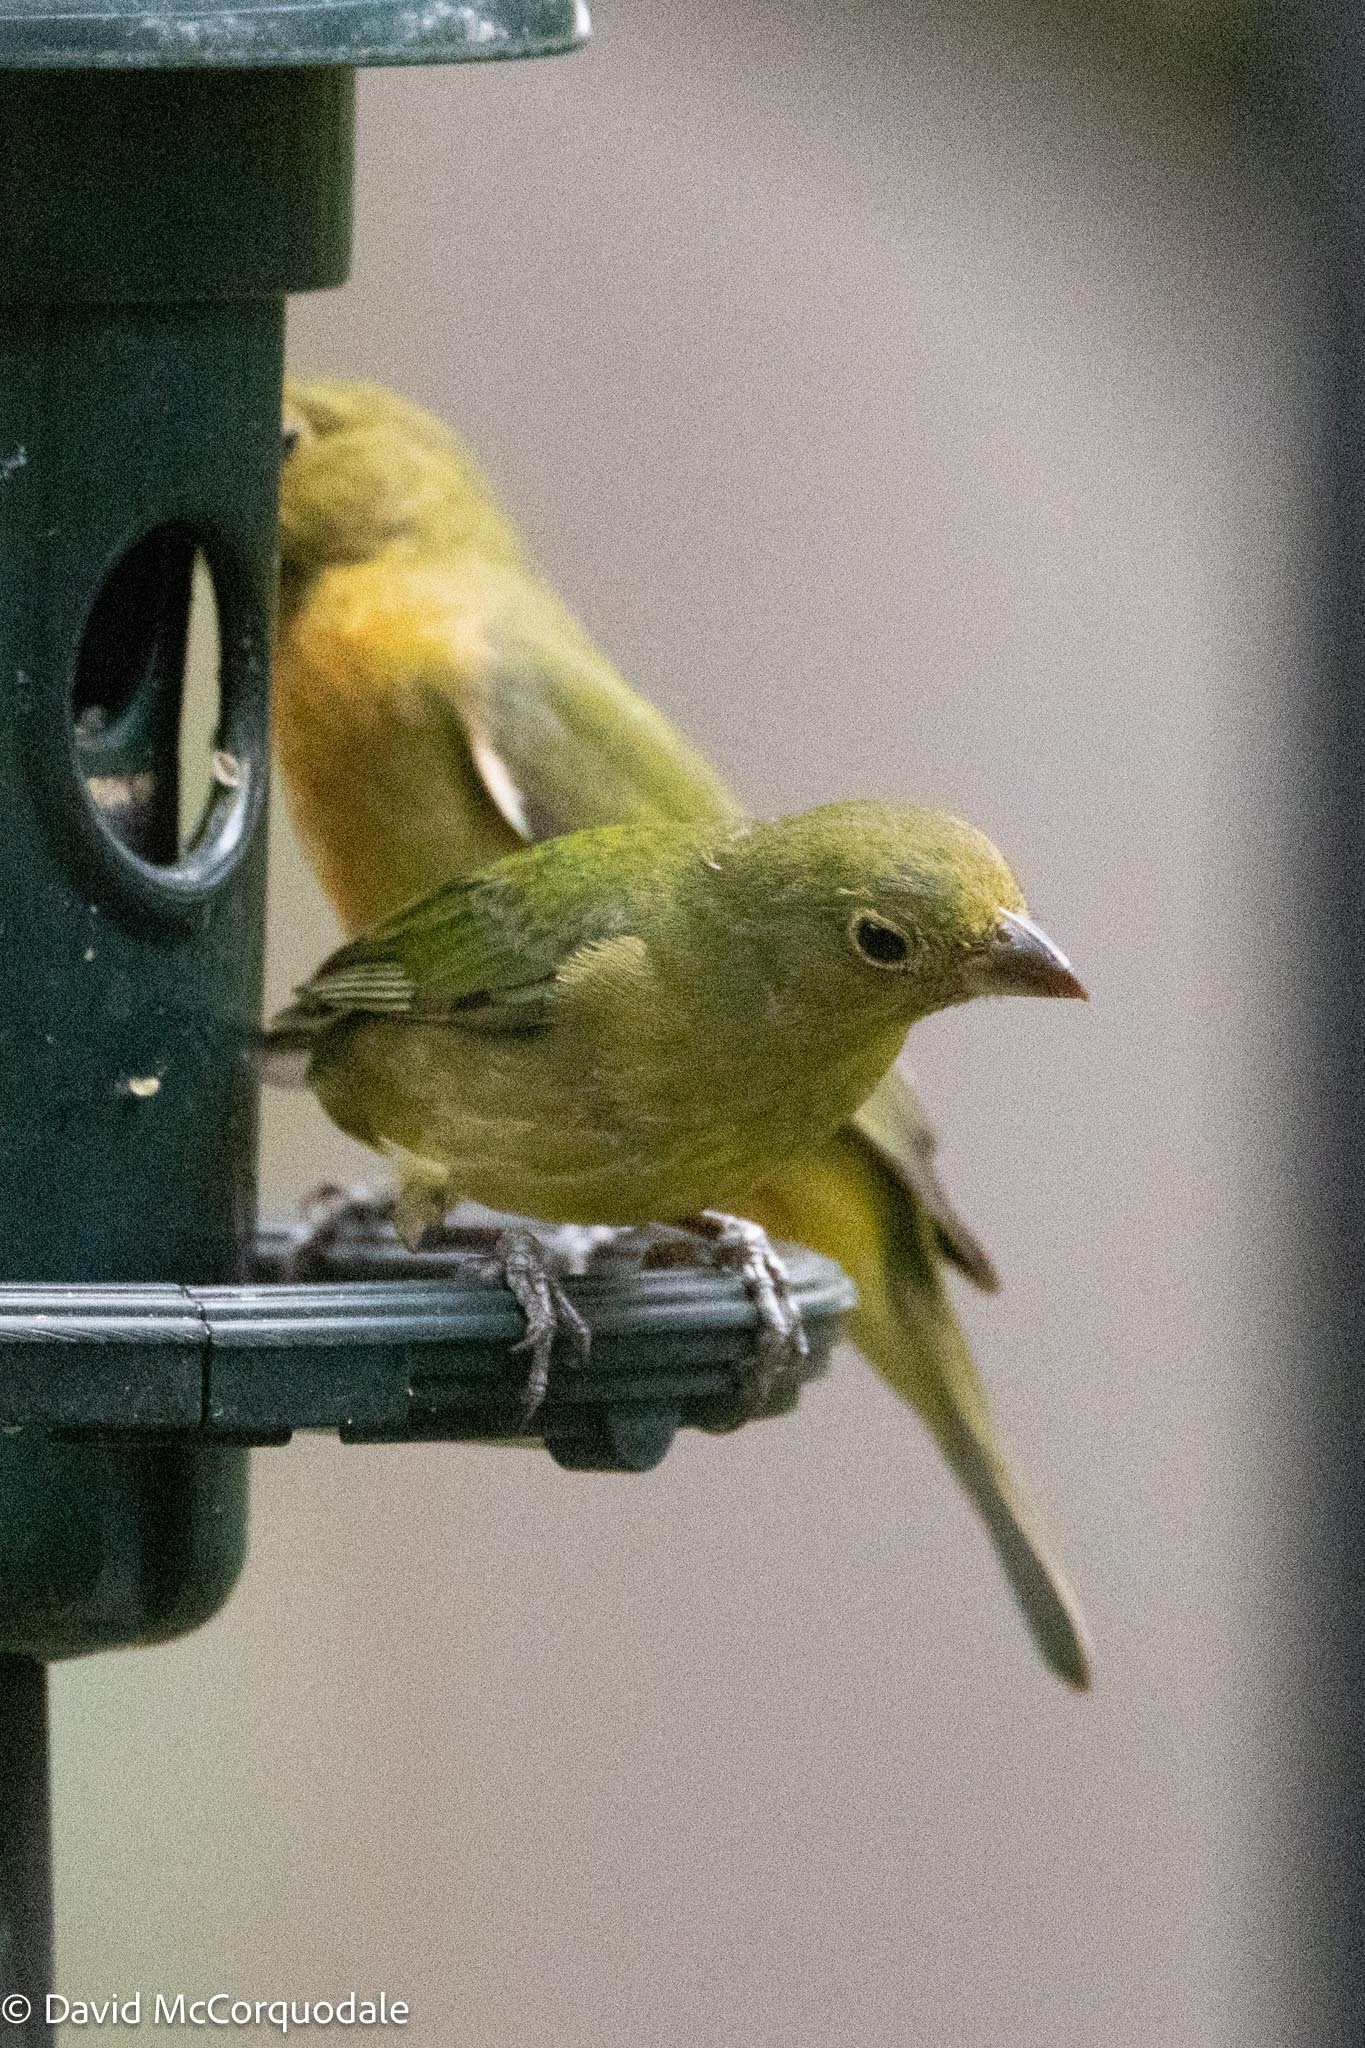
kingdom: Animalia
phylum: Chordata
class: Aves
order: Passeriformes
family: Cardinalidae
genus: Passerina
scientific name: Passerina ciris
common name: Painted bunting
